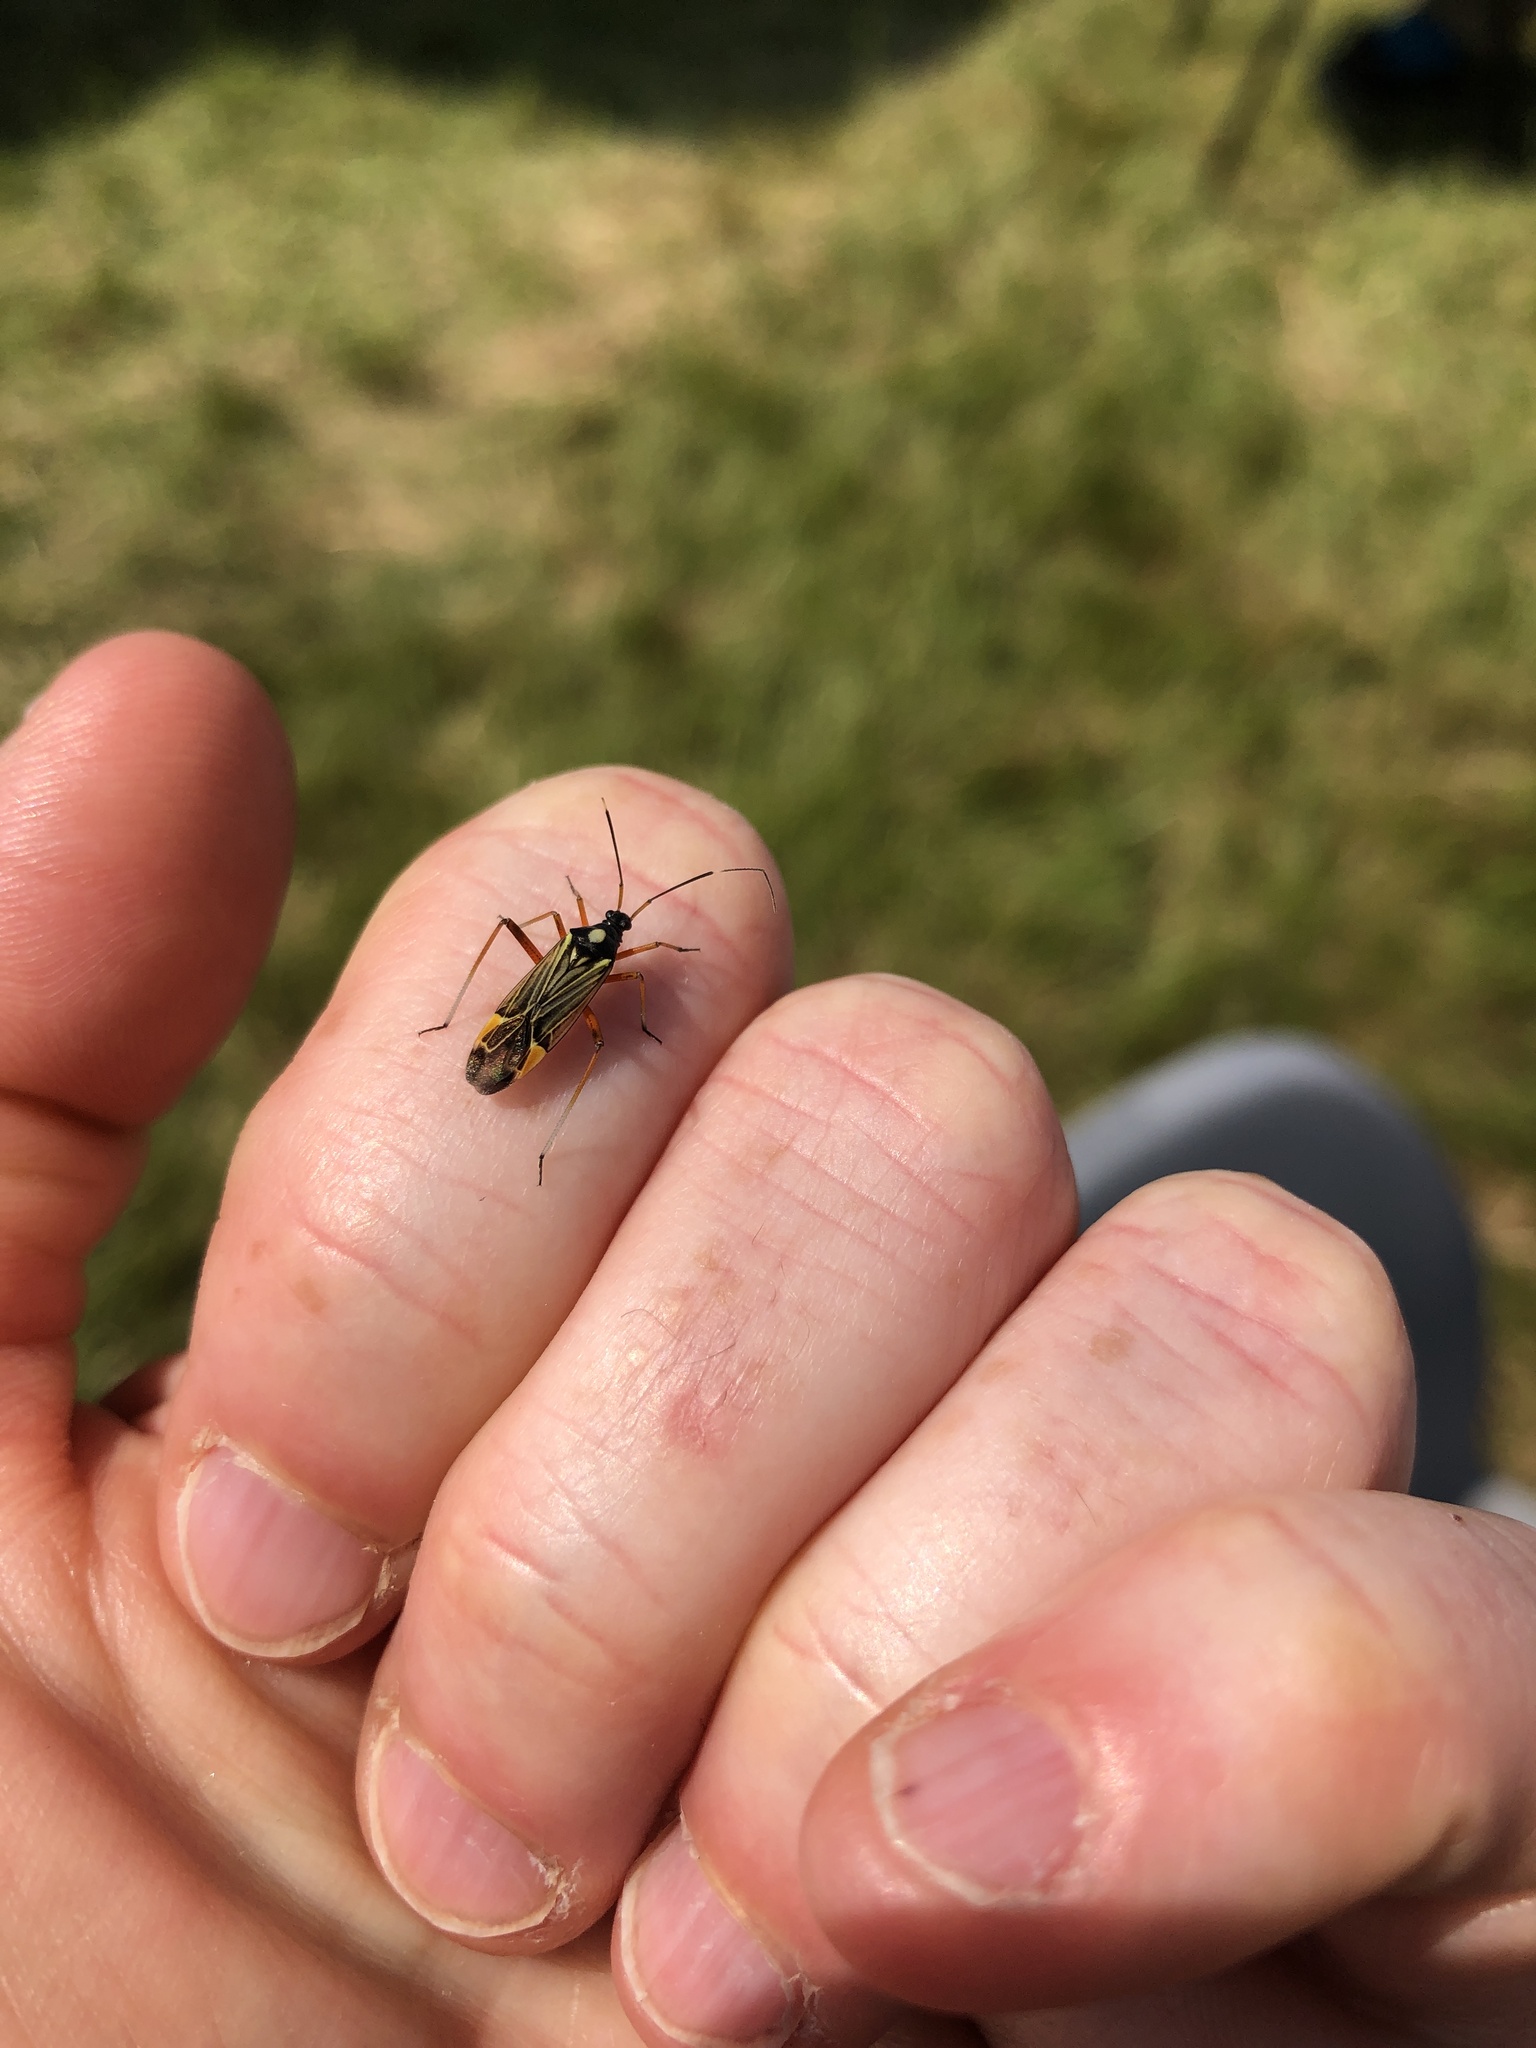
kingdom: Animalia
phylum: Arthropoda
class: Insecta
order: Hemiptera
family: Miridae
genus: Miris
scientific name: Miris striatus
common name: Fine streaked bugkin
